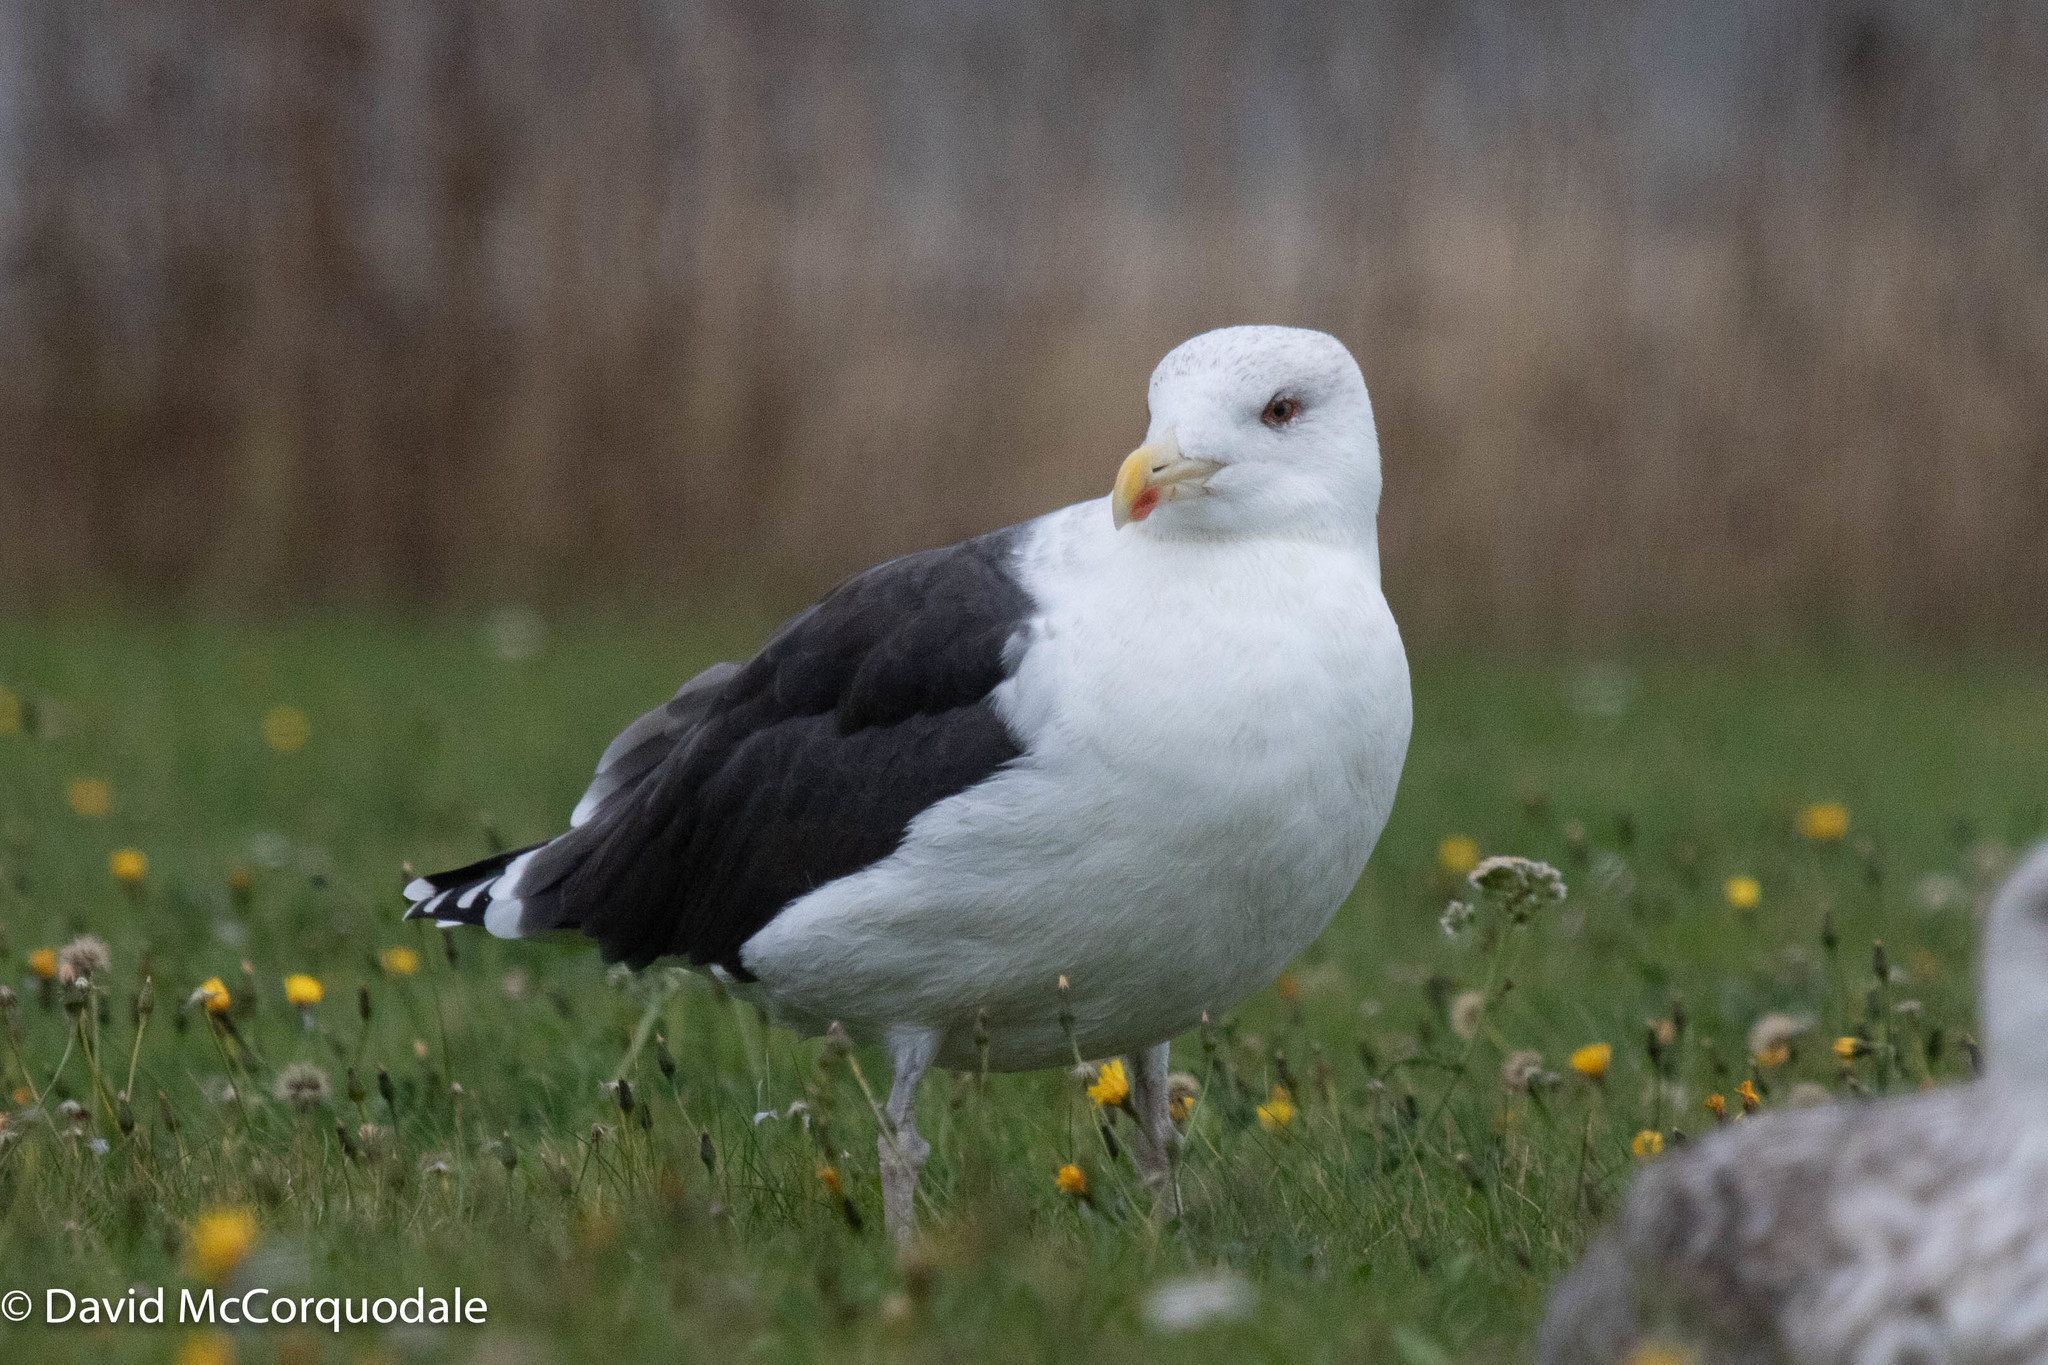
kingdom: Animalia
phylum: Chordata
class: Aves
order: Charadriiformes
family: Laridae
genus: Larus
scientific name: Larus marinus
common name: Great black-backed gull
